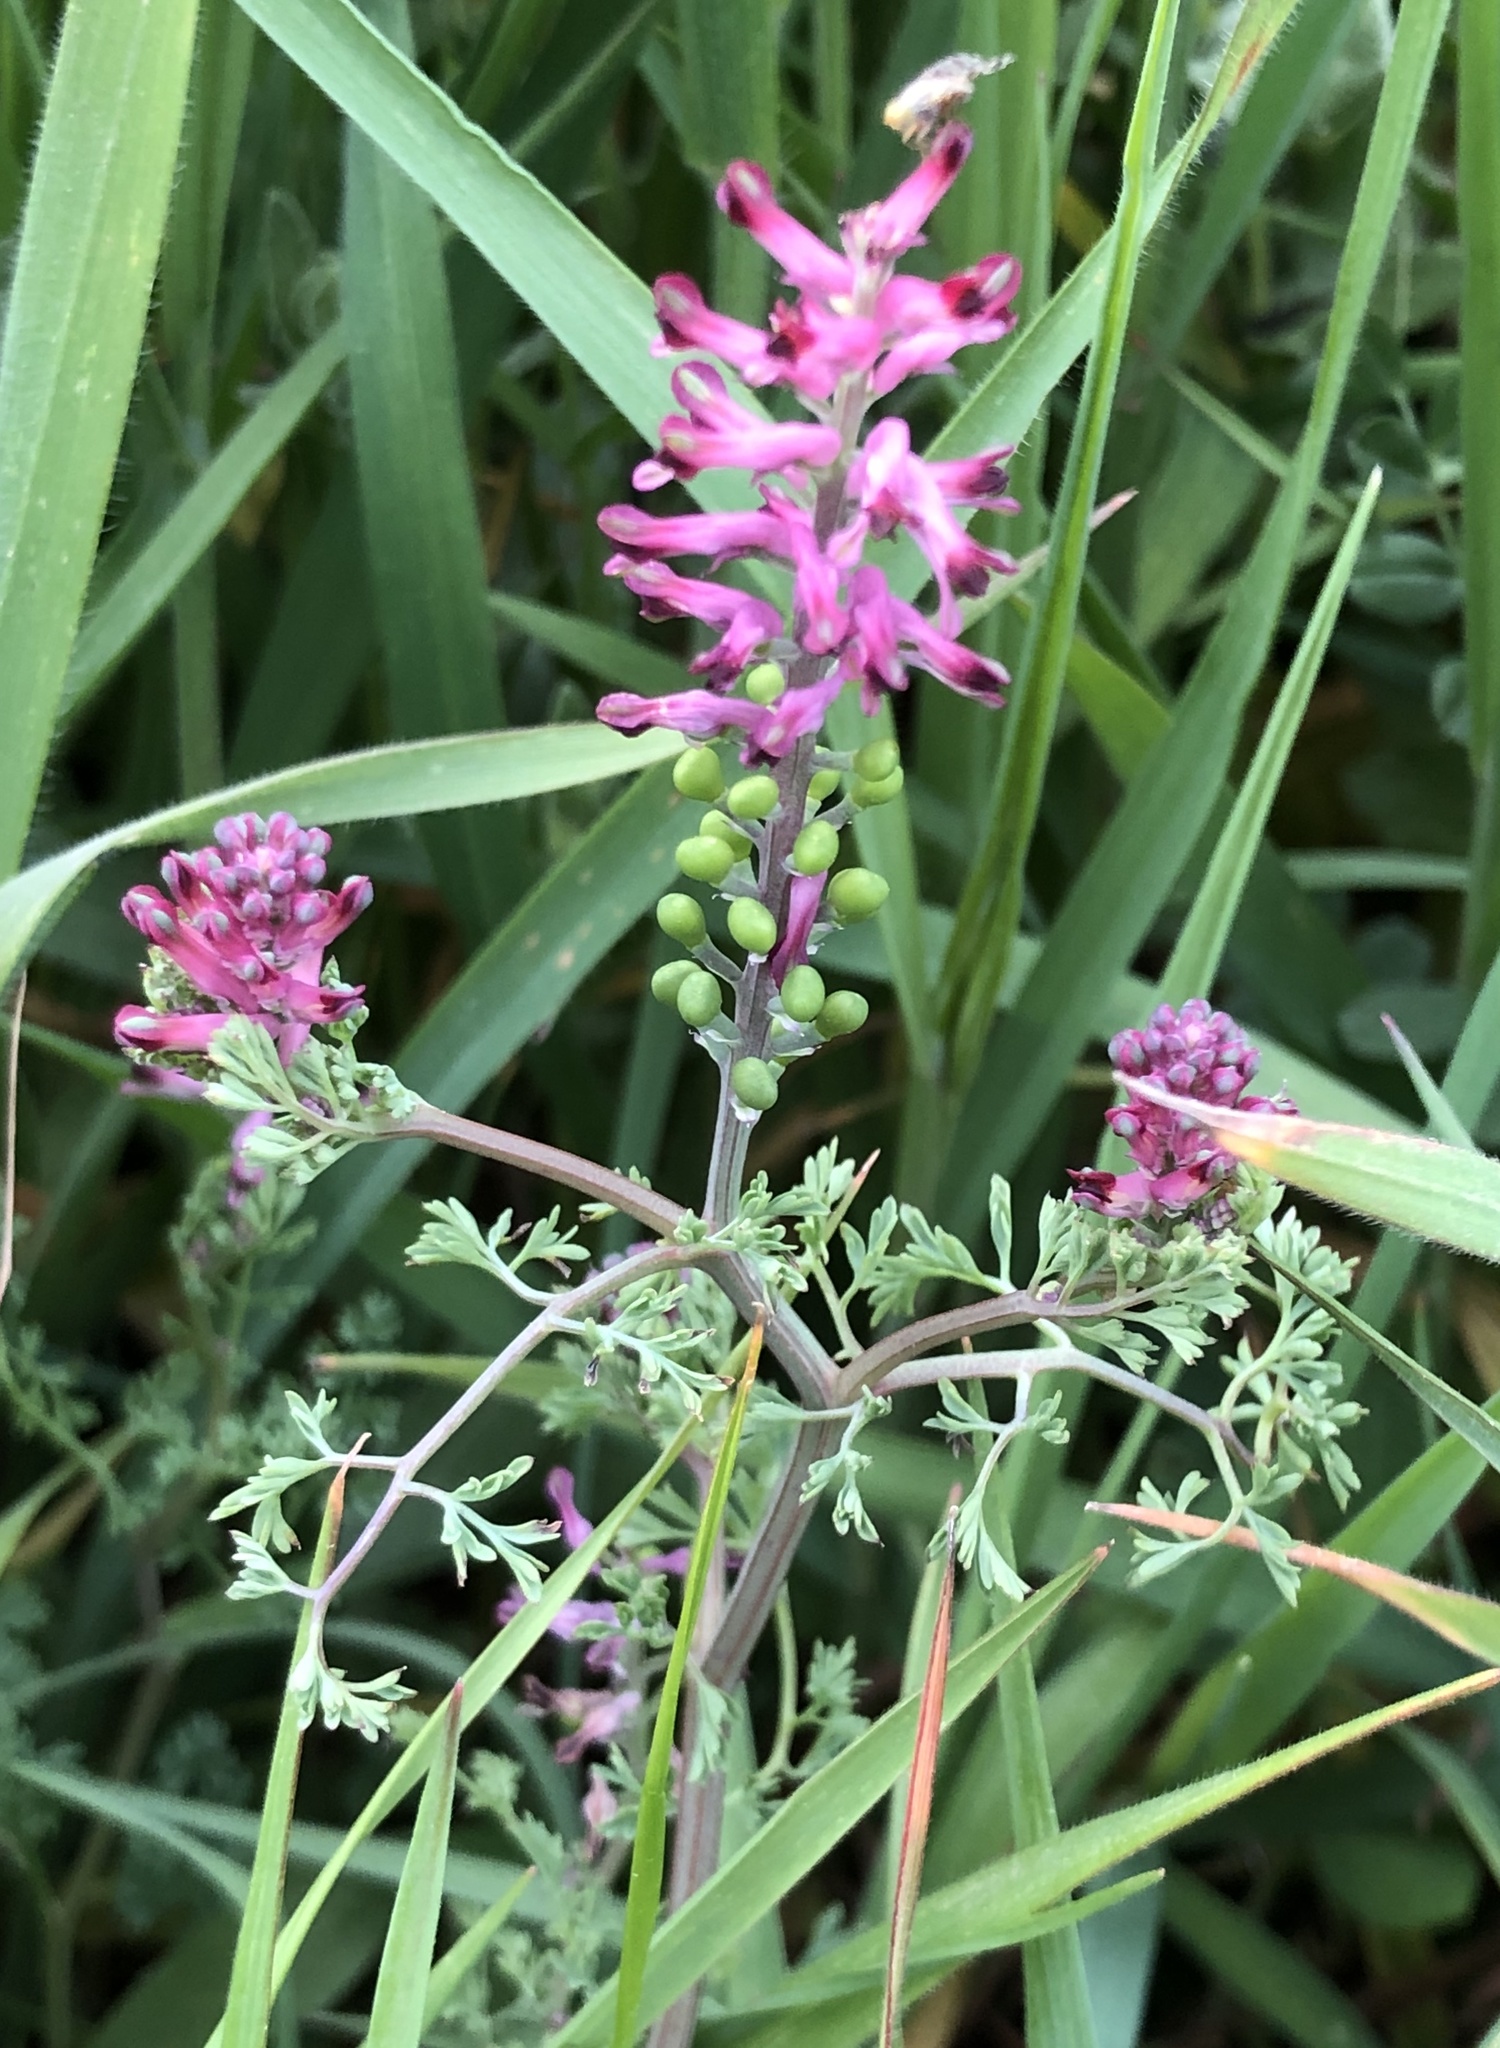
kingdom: Plantae
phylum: Tracheophyta
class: Magnoliopsida
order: Ranunculales
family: Papaveraceae
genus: Fumaria
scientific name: Fumaria officinalis
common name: Common fumitory
